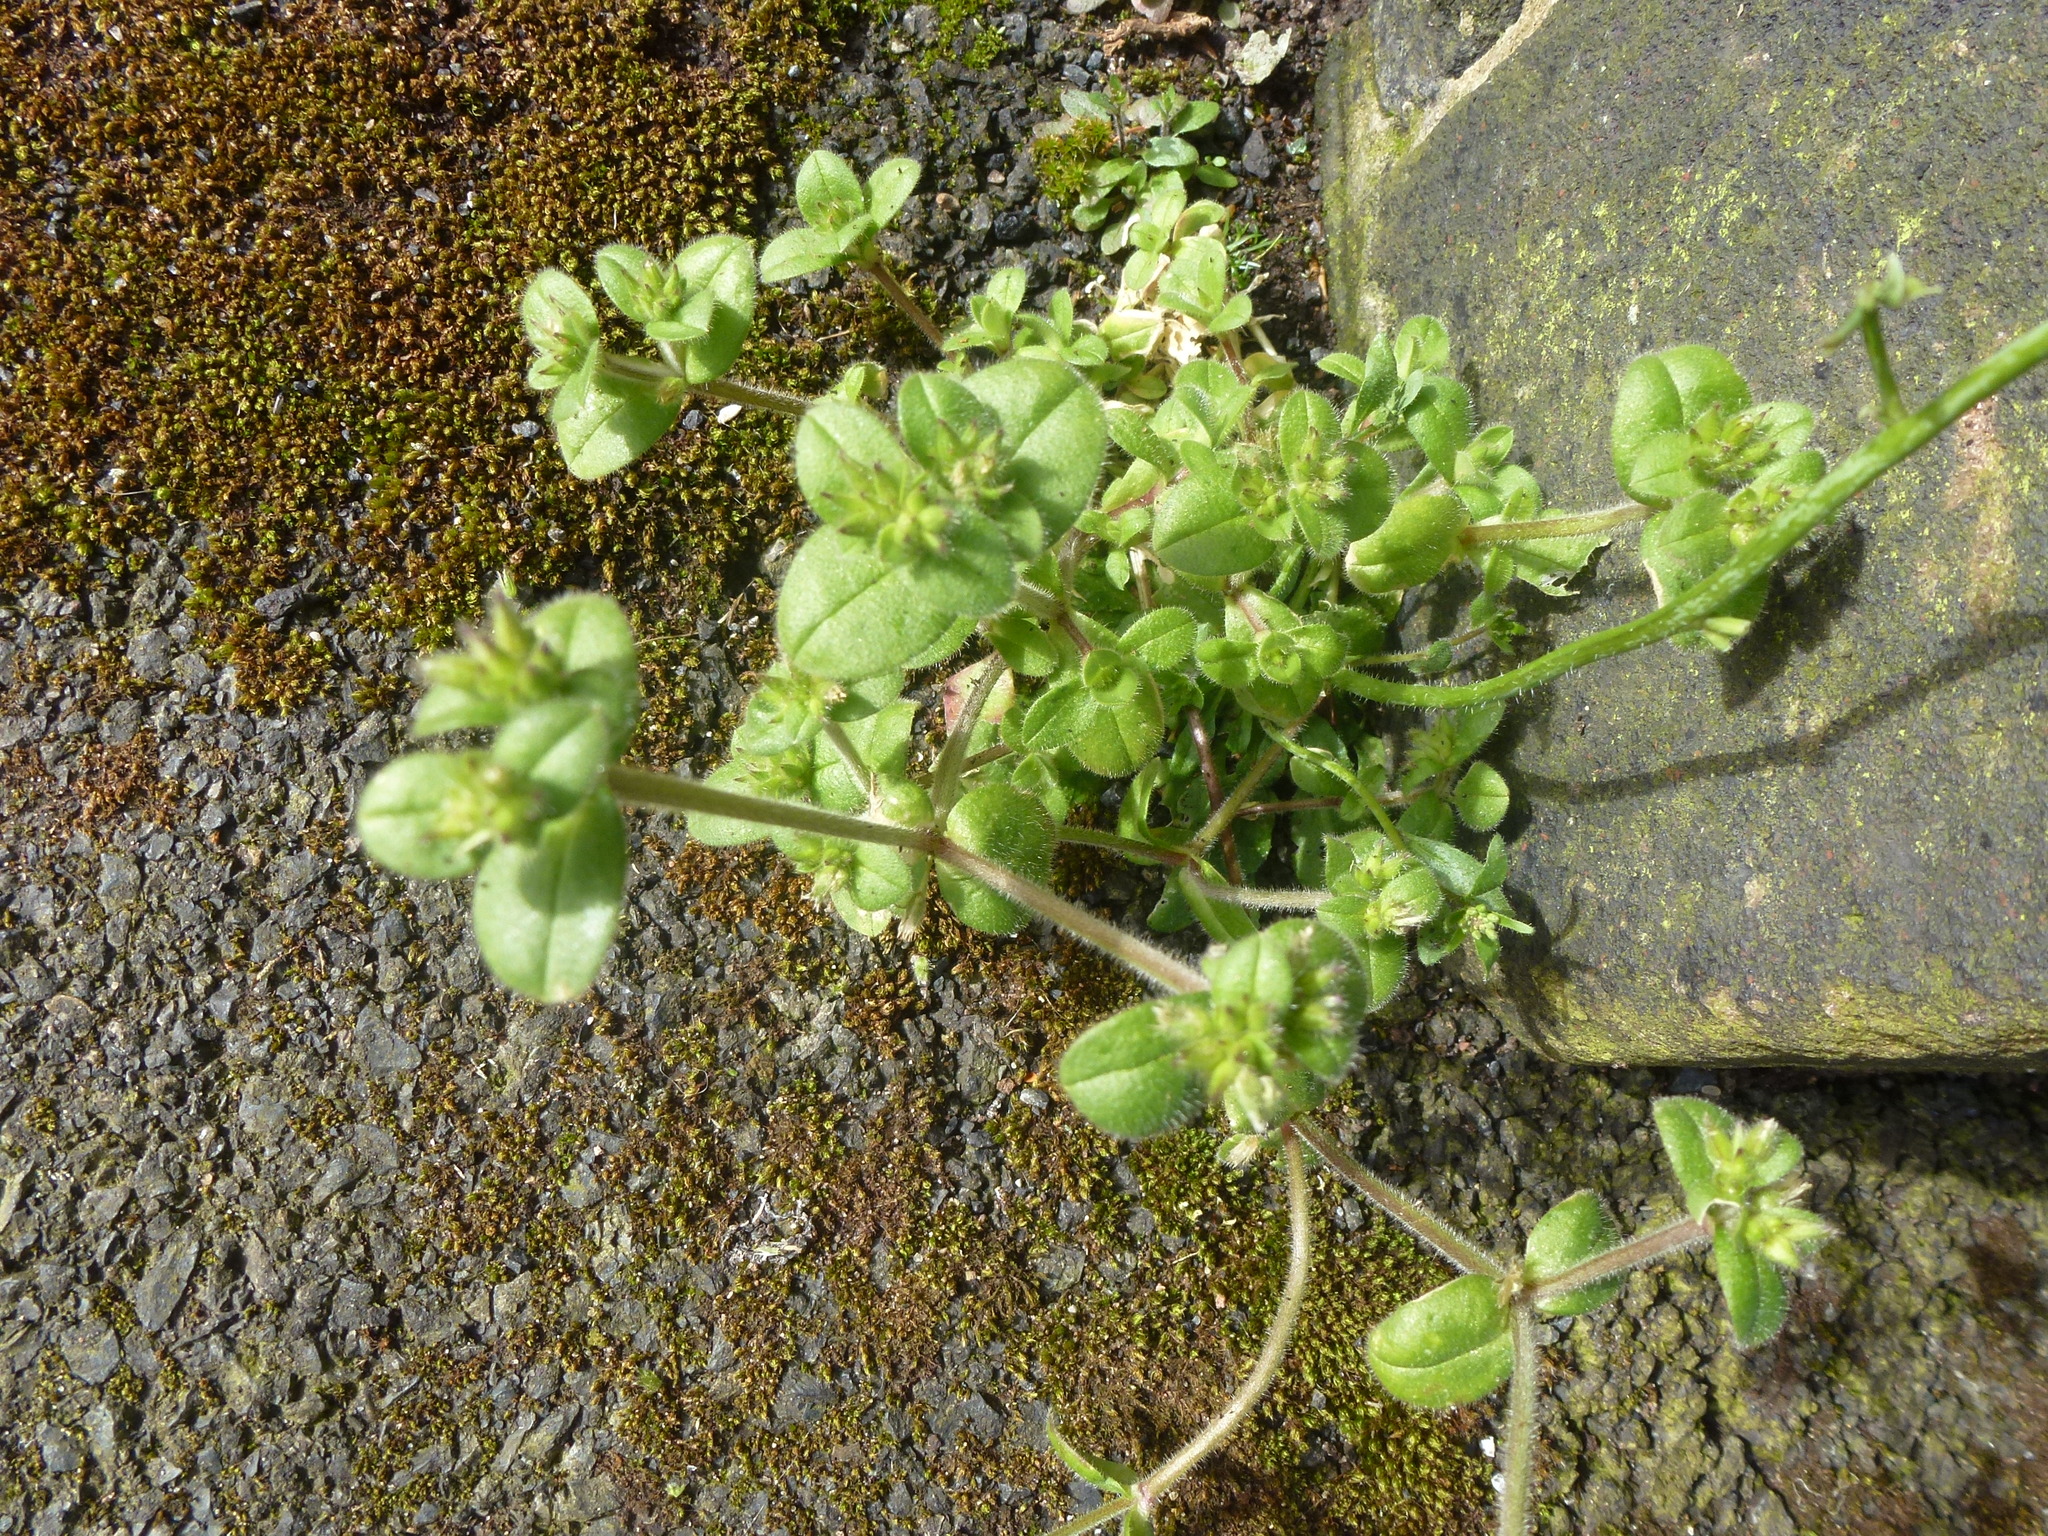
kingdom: Plantae
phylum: Tracheophyta
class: Magnoliopsida
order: Caryophyllales
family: Caryophyllaceae
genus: Cerastium
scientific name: Cerastium glomeratum
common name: Sticky chickweed
